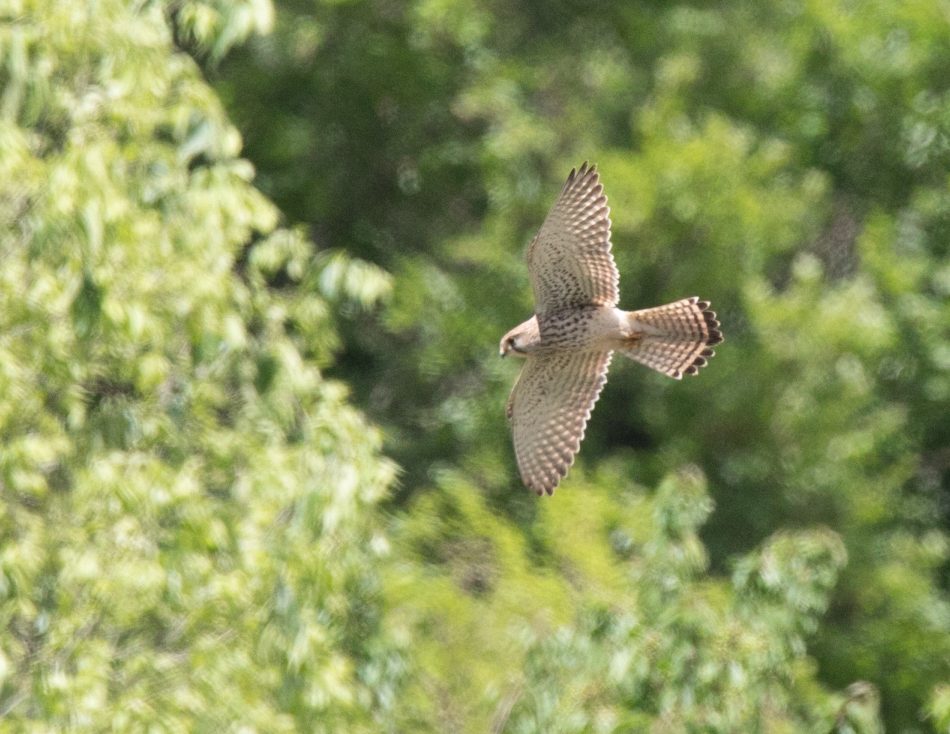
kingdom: Animalia
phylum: Chordata
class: Aves
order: Falconiformes
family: Falconidae
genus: Falco
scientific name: Falco tinnunculus
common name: Common kestrel
